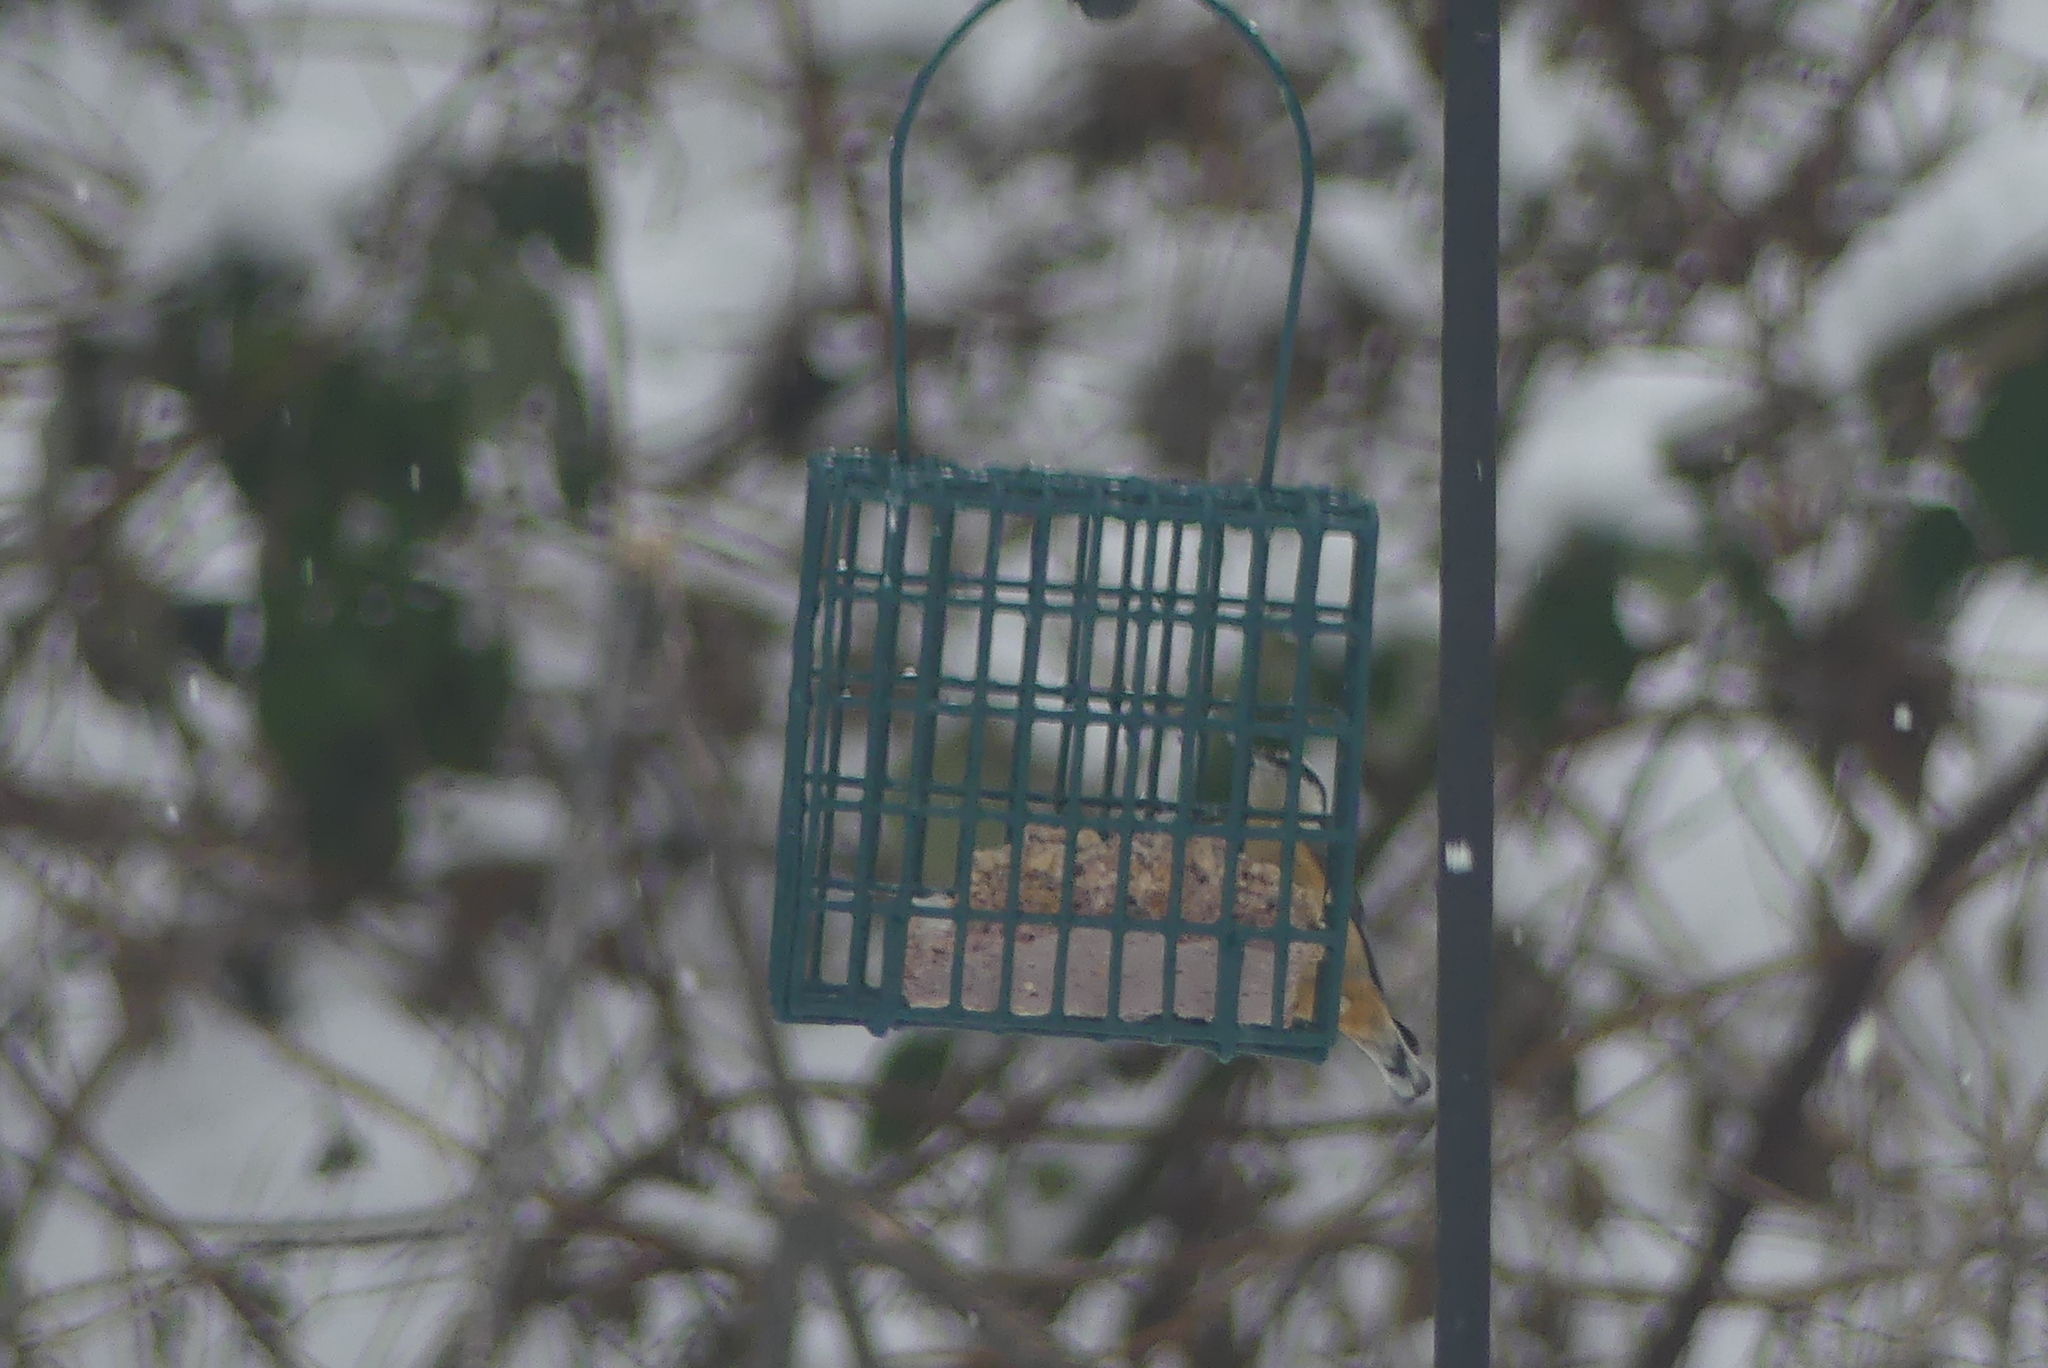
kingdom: Animalia
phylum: Chordata
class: Aves
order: Passeriformes
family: Sittidae
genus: Sitta
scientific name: Sitta canadensis
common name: Red-breasted nuthatch
